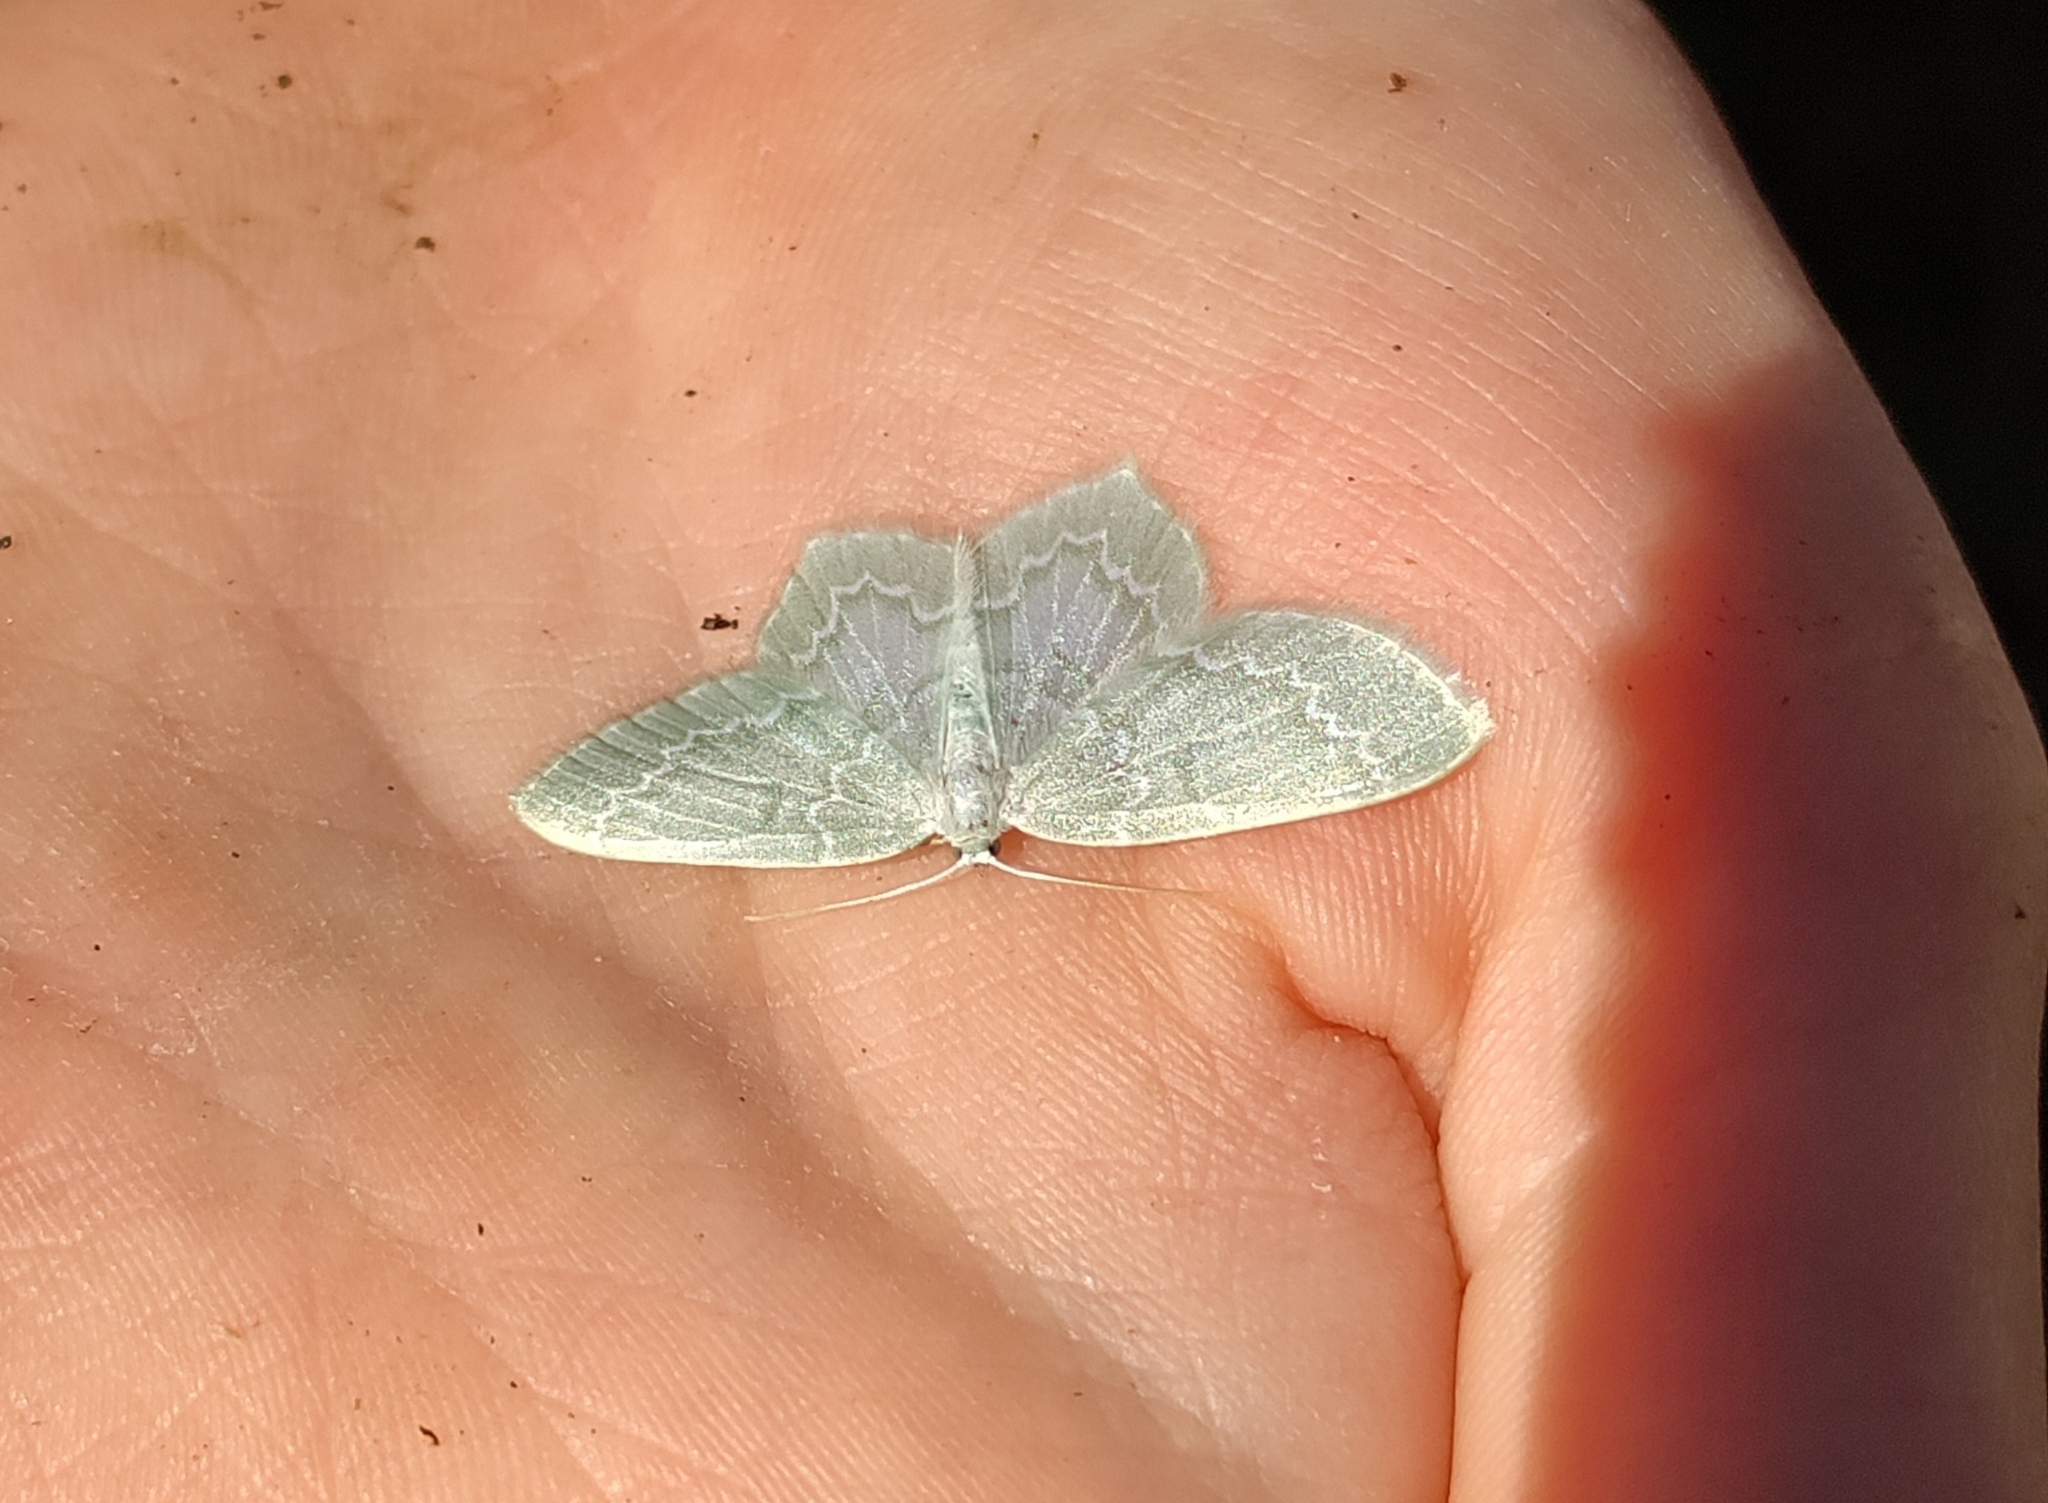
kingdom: Animalia
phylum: Arthropoda
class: Insecta
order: Lepidoptera
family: Geometridae
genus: Jodis
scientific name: Jodis putata
